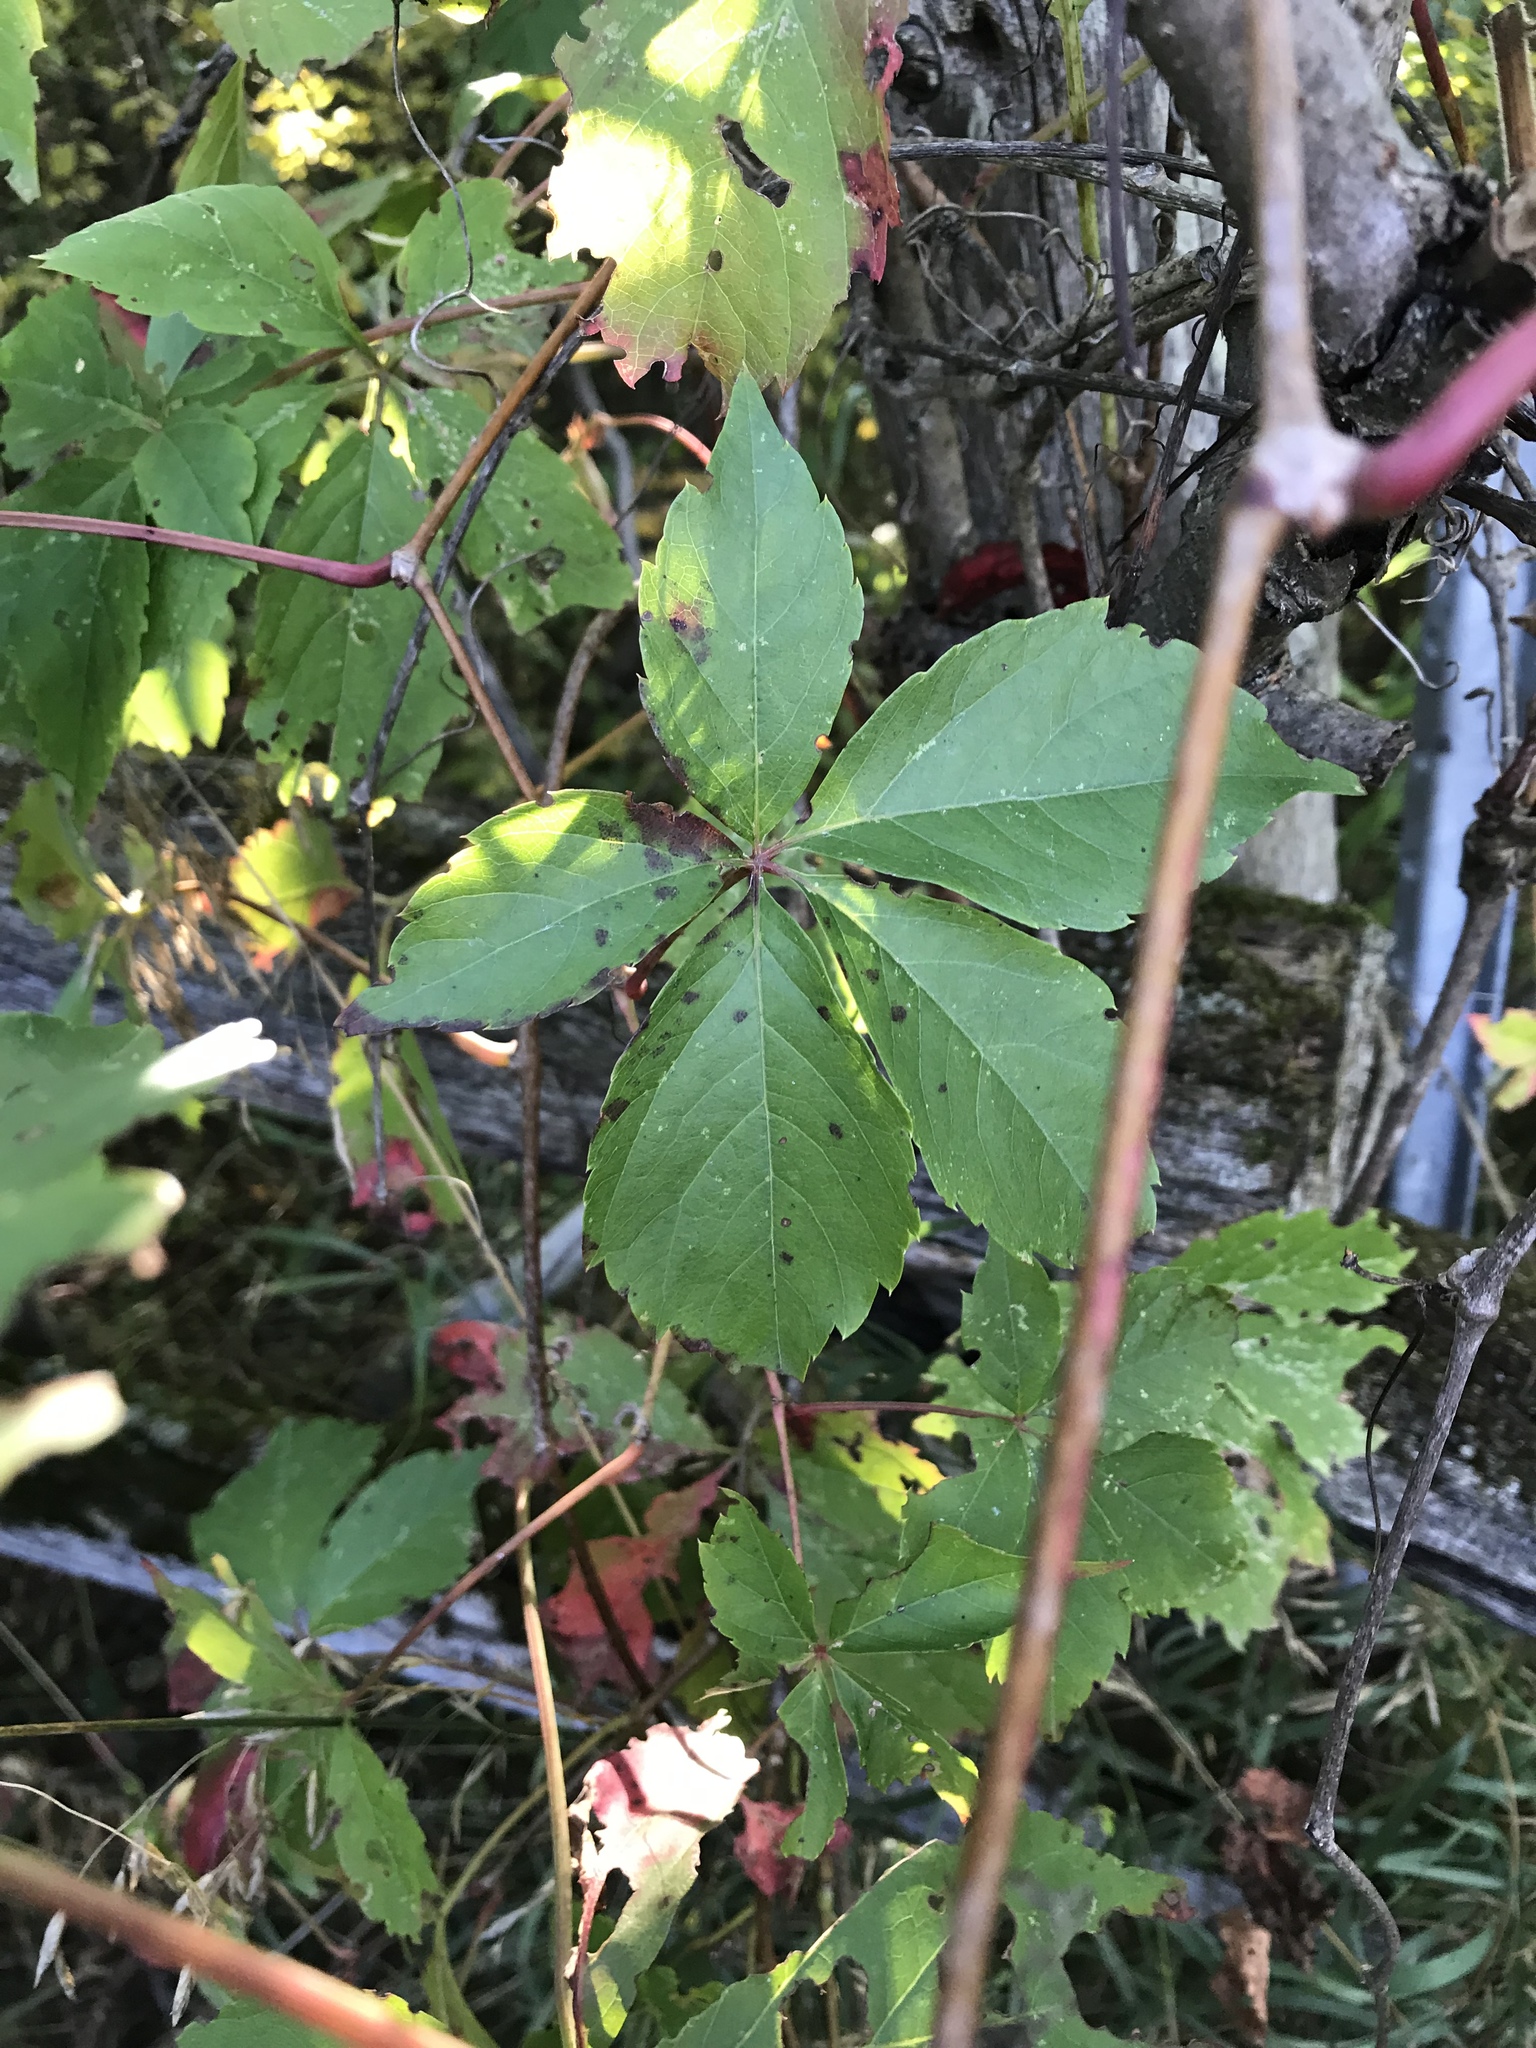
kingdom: Plantae
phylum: Tracheophyta
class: Magnoliopsida
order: Vitales
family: Vitaceae
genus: Parthenocissus
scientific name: Parthenocissus quinquefolia
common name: Virginia-creeper
